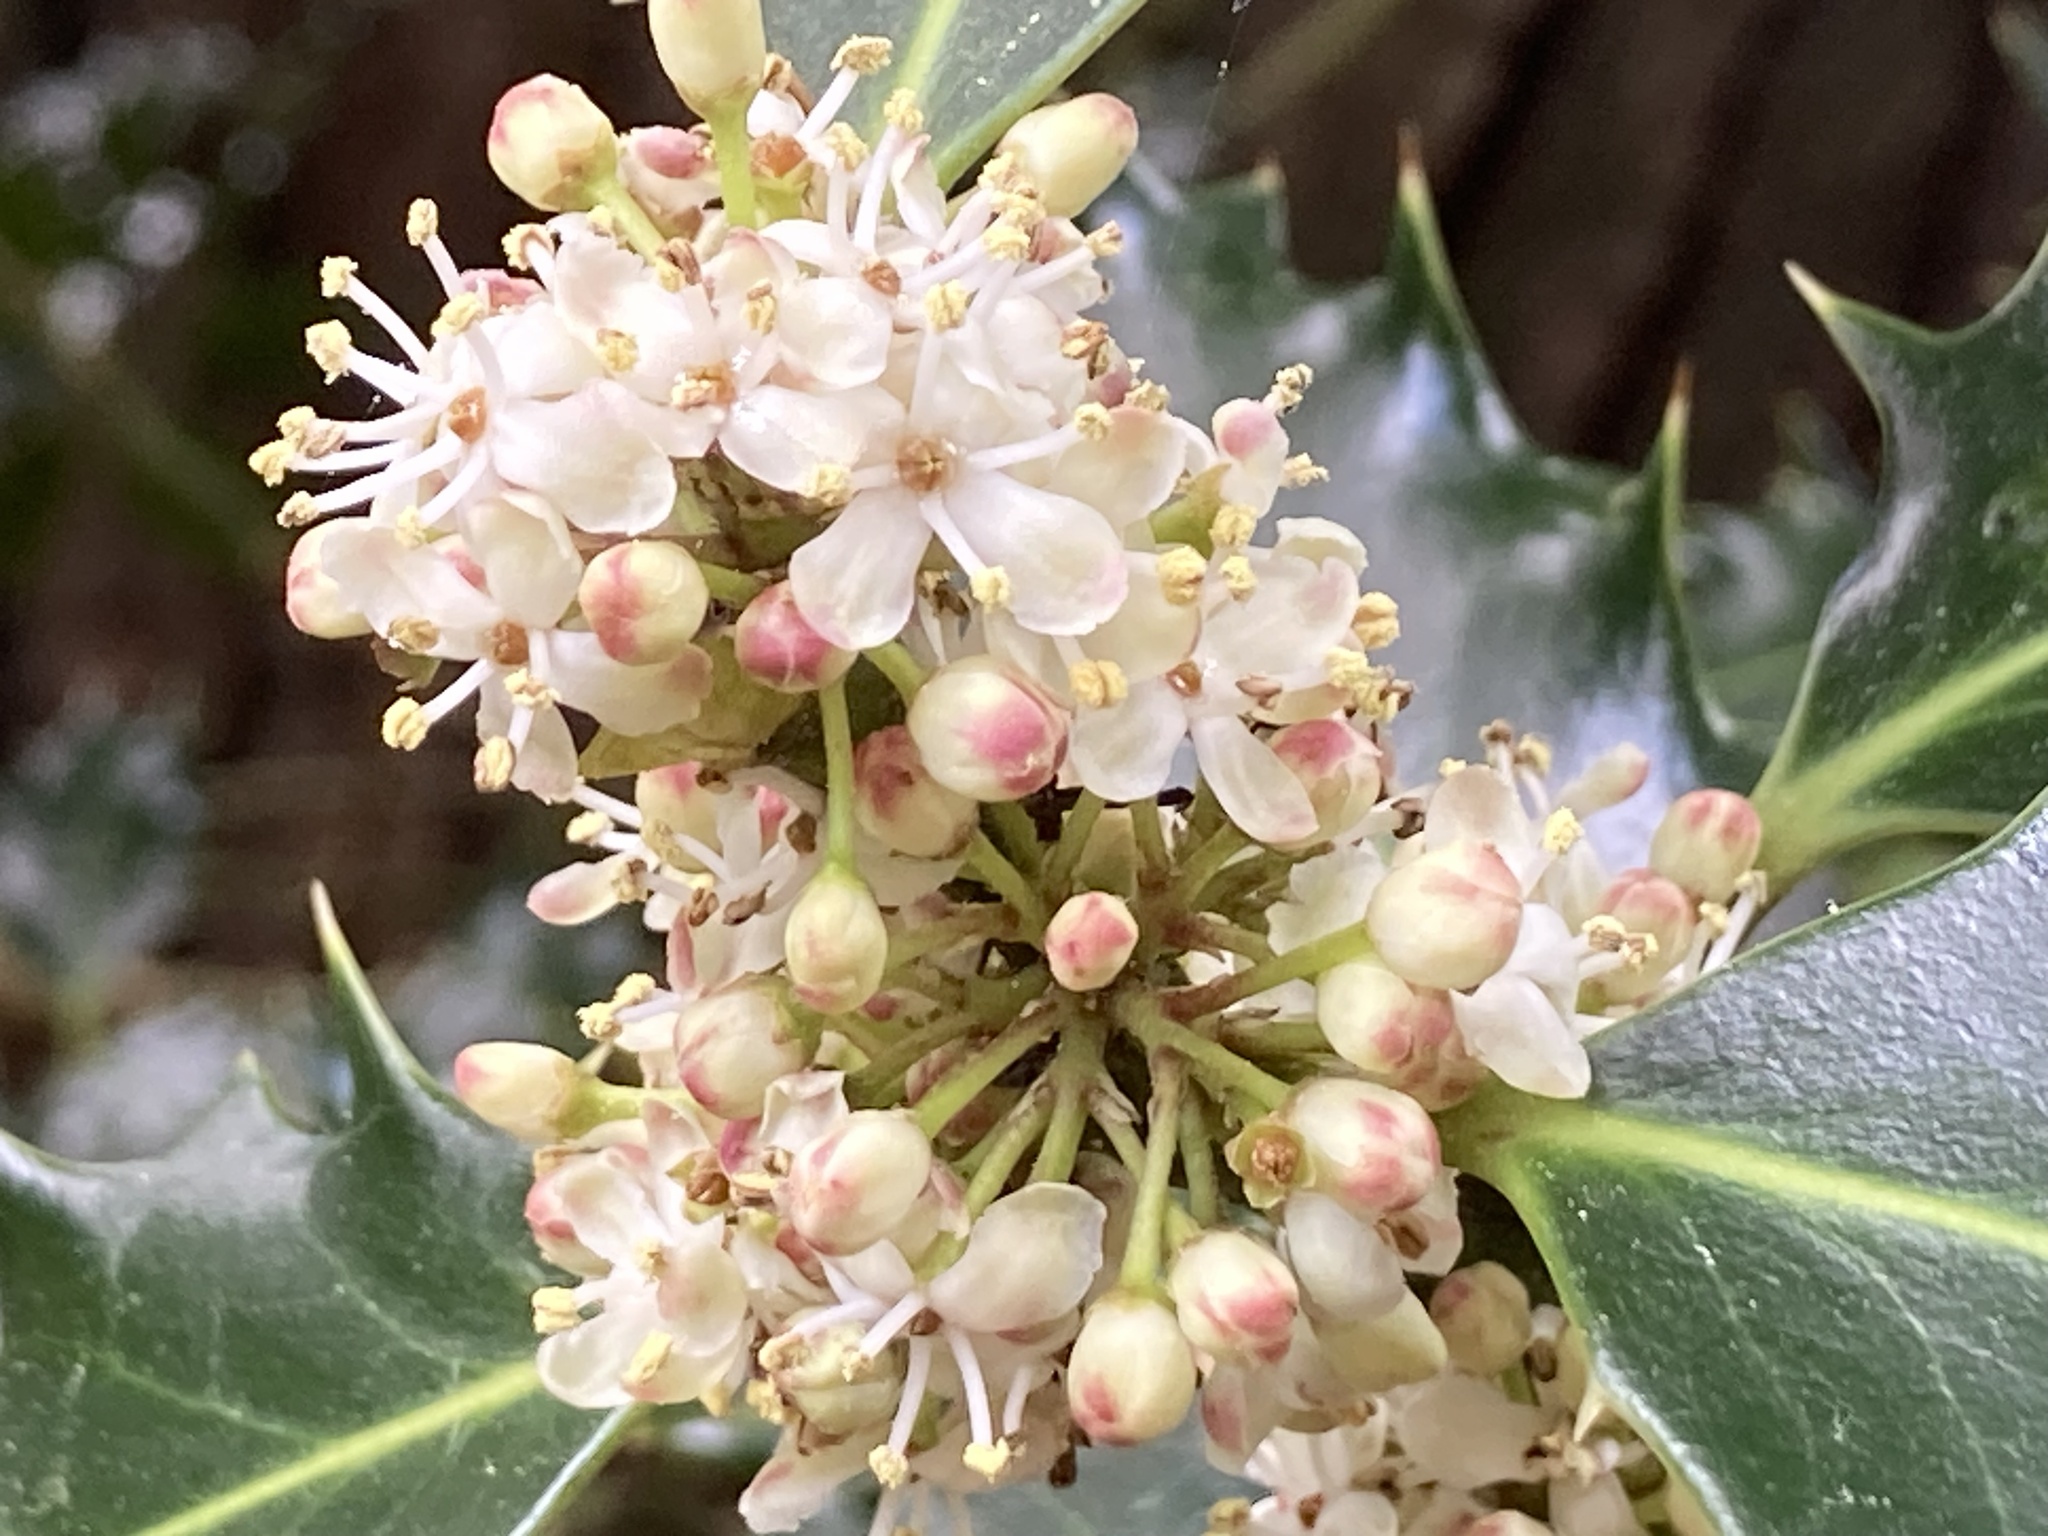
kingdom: Plantae
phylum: Tracheophyta
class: Magnoliopsida
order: Aquifoliales
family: Aquifoliaceae
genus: Ilex
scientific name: Ilex aquifolium
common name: English holly
